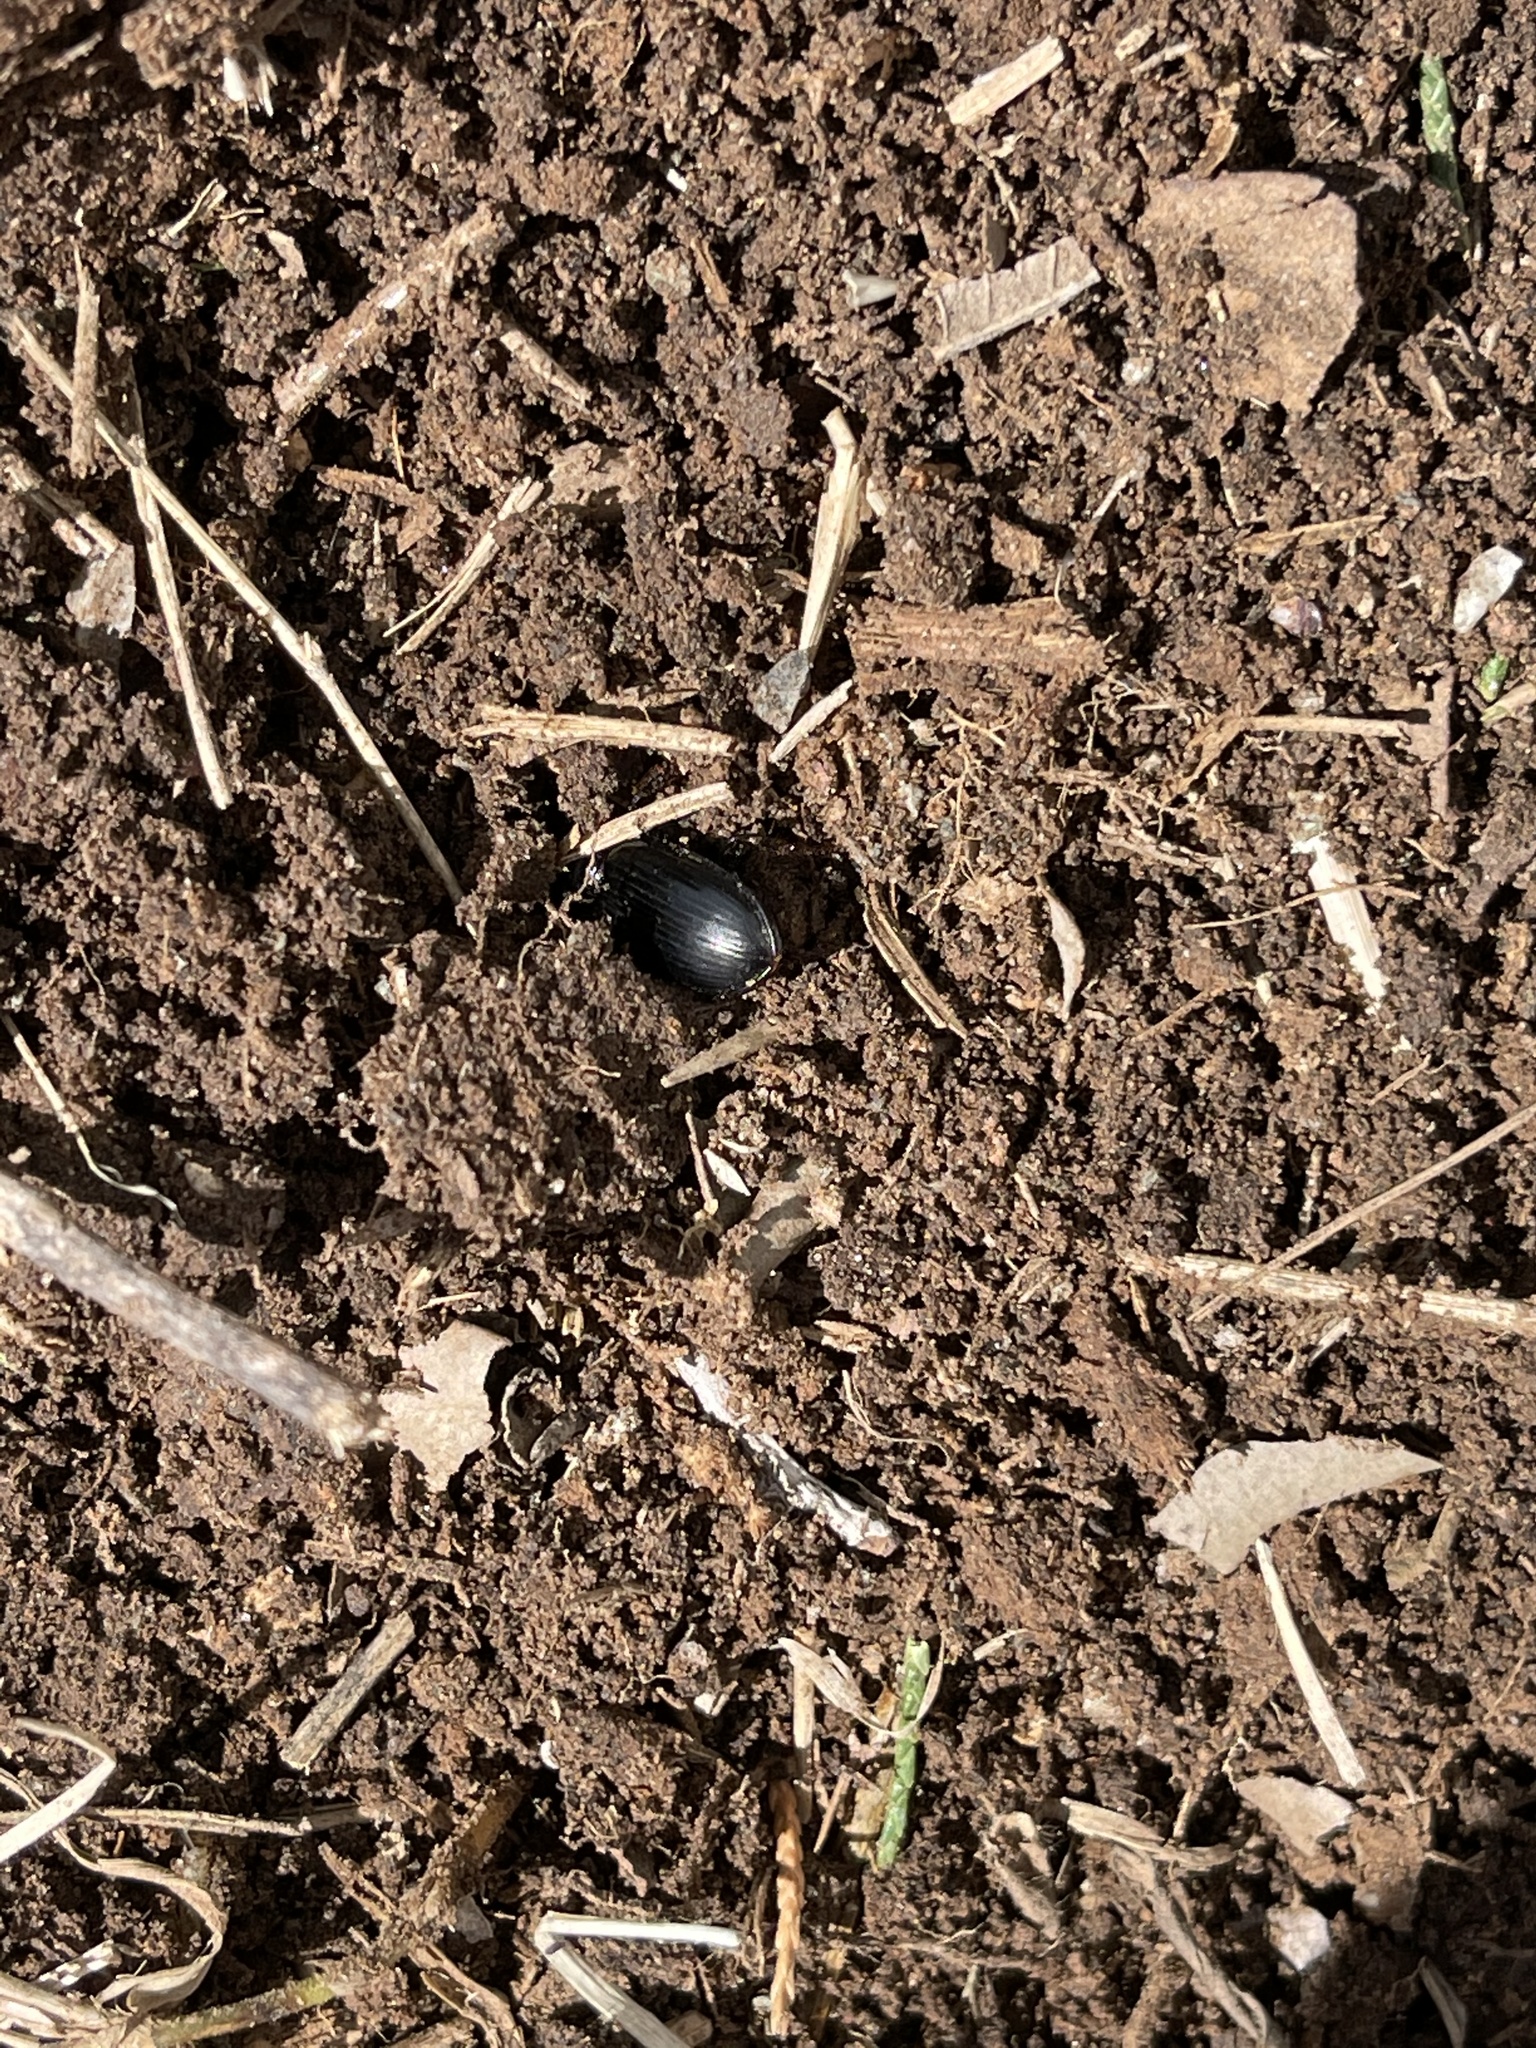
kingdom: Animalia
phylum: Arthropoda
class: Insecta
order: Coleoptera
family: Carabidae
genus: Scarites
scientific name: Scarites subterraneus
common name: Big-headed ground beetle
